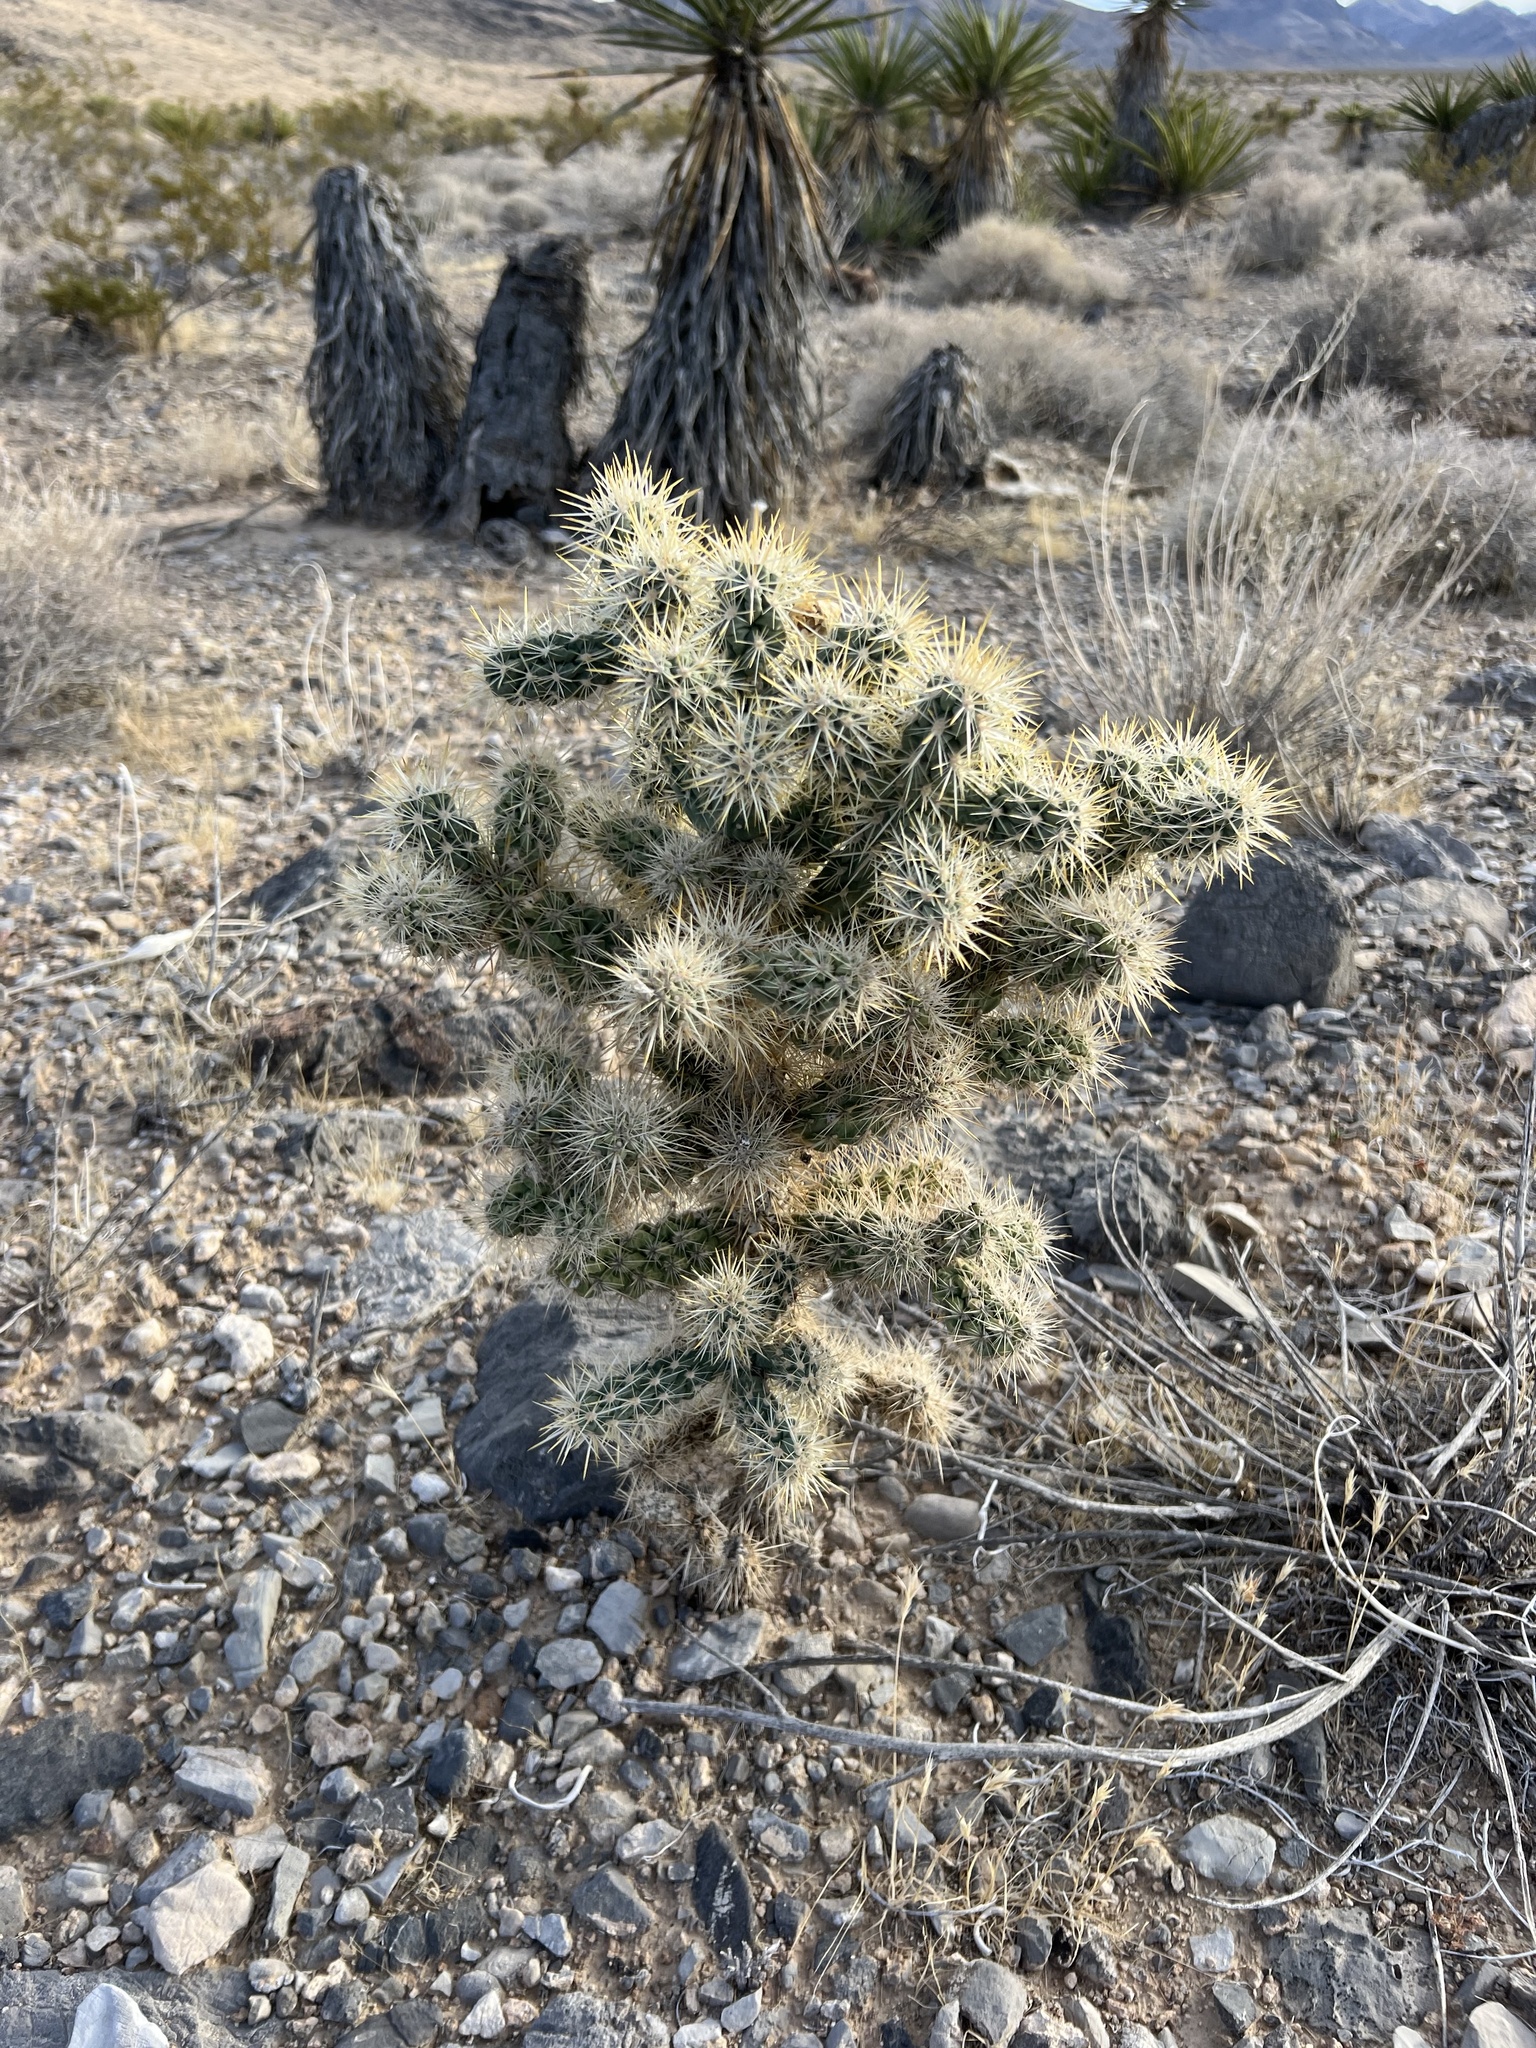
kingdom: Plantae
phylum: Tracheophyta
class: Magnoliopsida
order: Caryophyllales
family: Cactaceae
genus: Cylindropuntia
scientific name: Cylindropuntia echinocarpa
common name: Ground cholla
